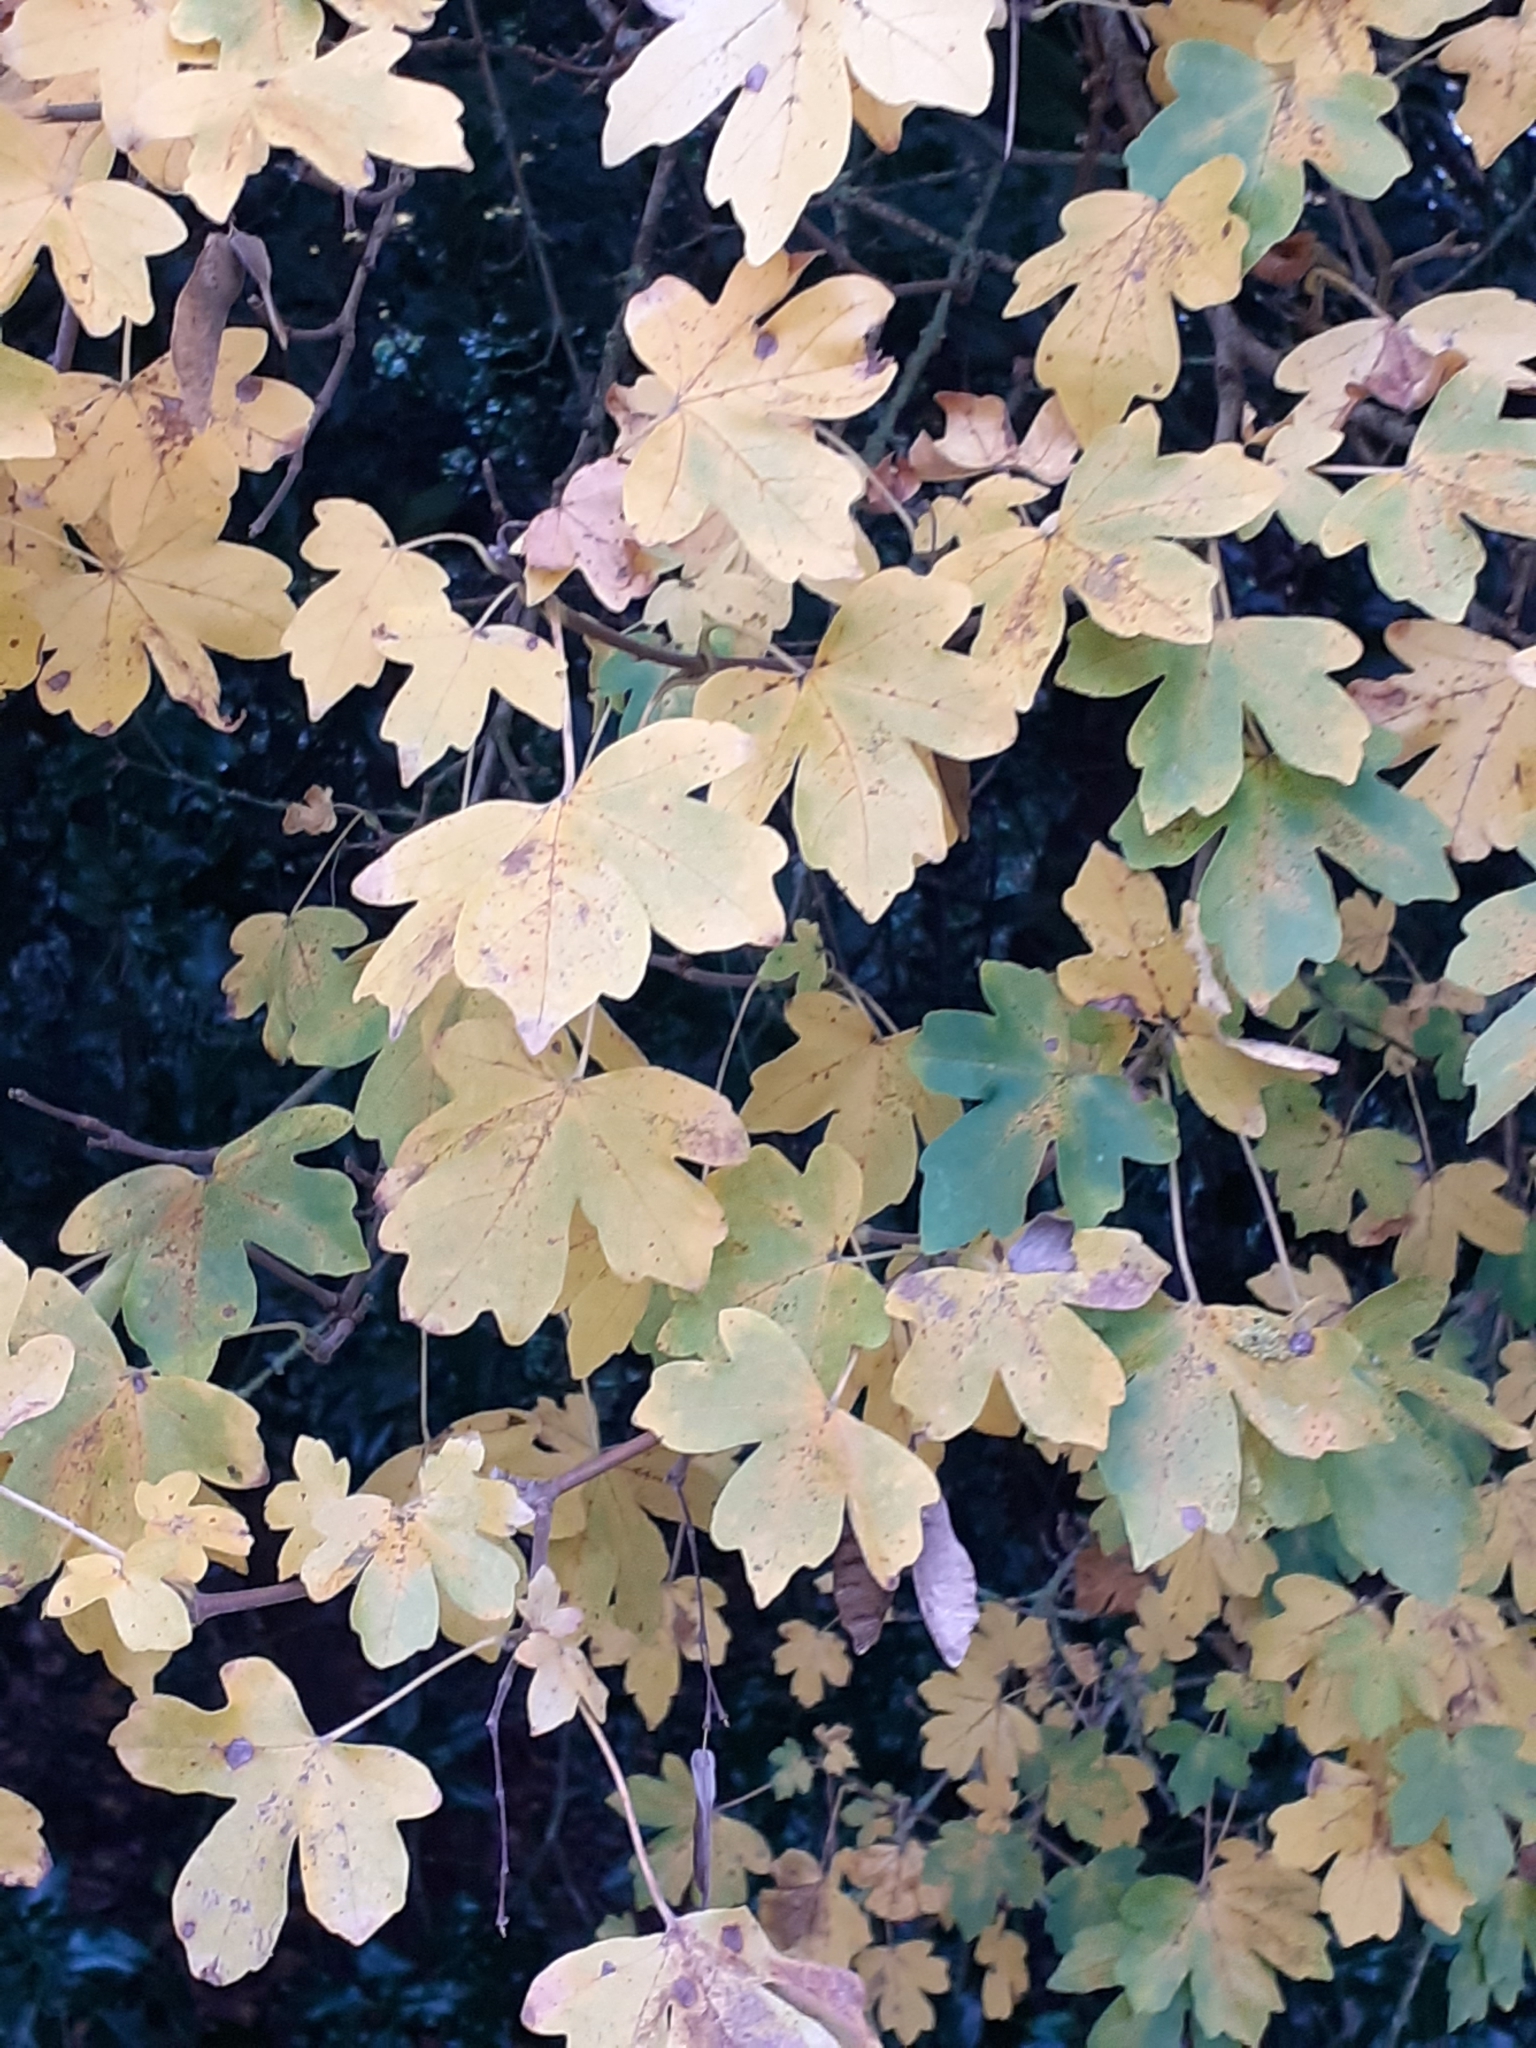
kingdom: Plantae
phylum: Tracheophyta
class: Magnoliopsida
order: Sapindales
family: Sapindaceae
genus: Acer
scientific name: Acer campestre
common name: Field maple
